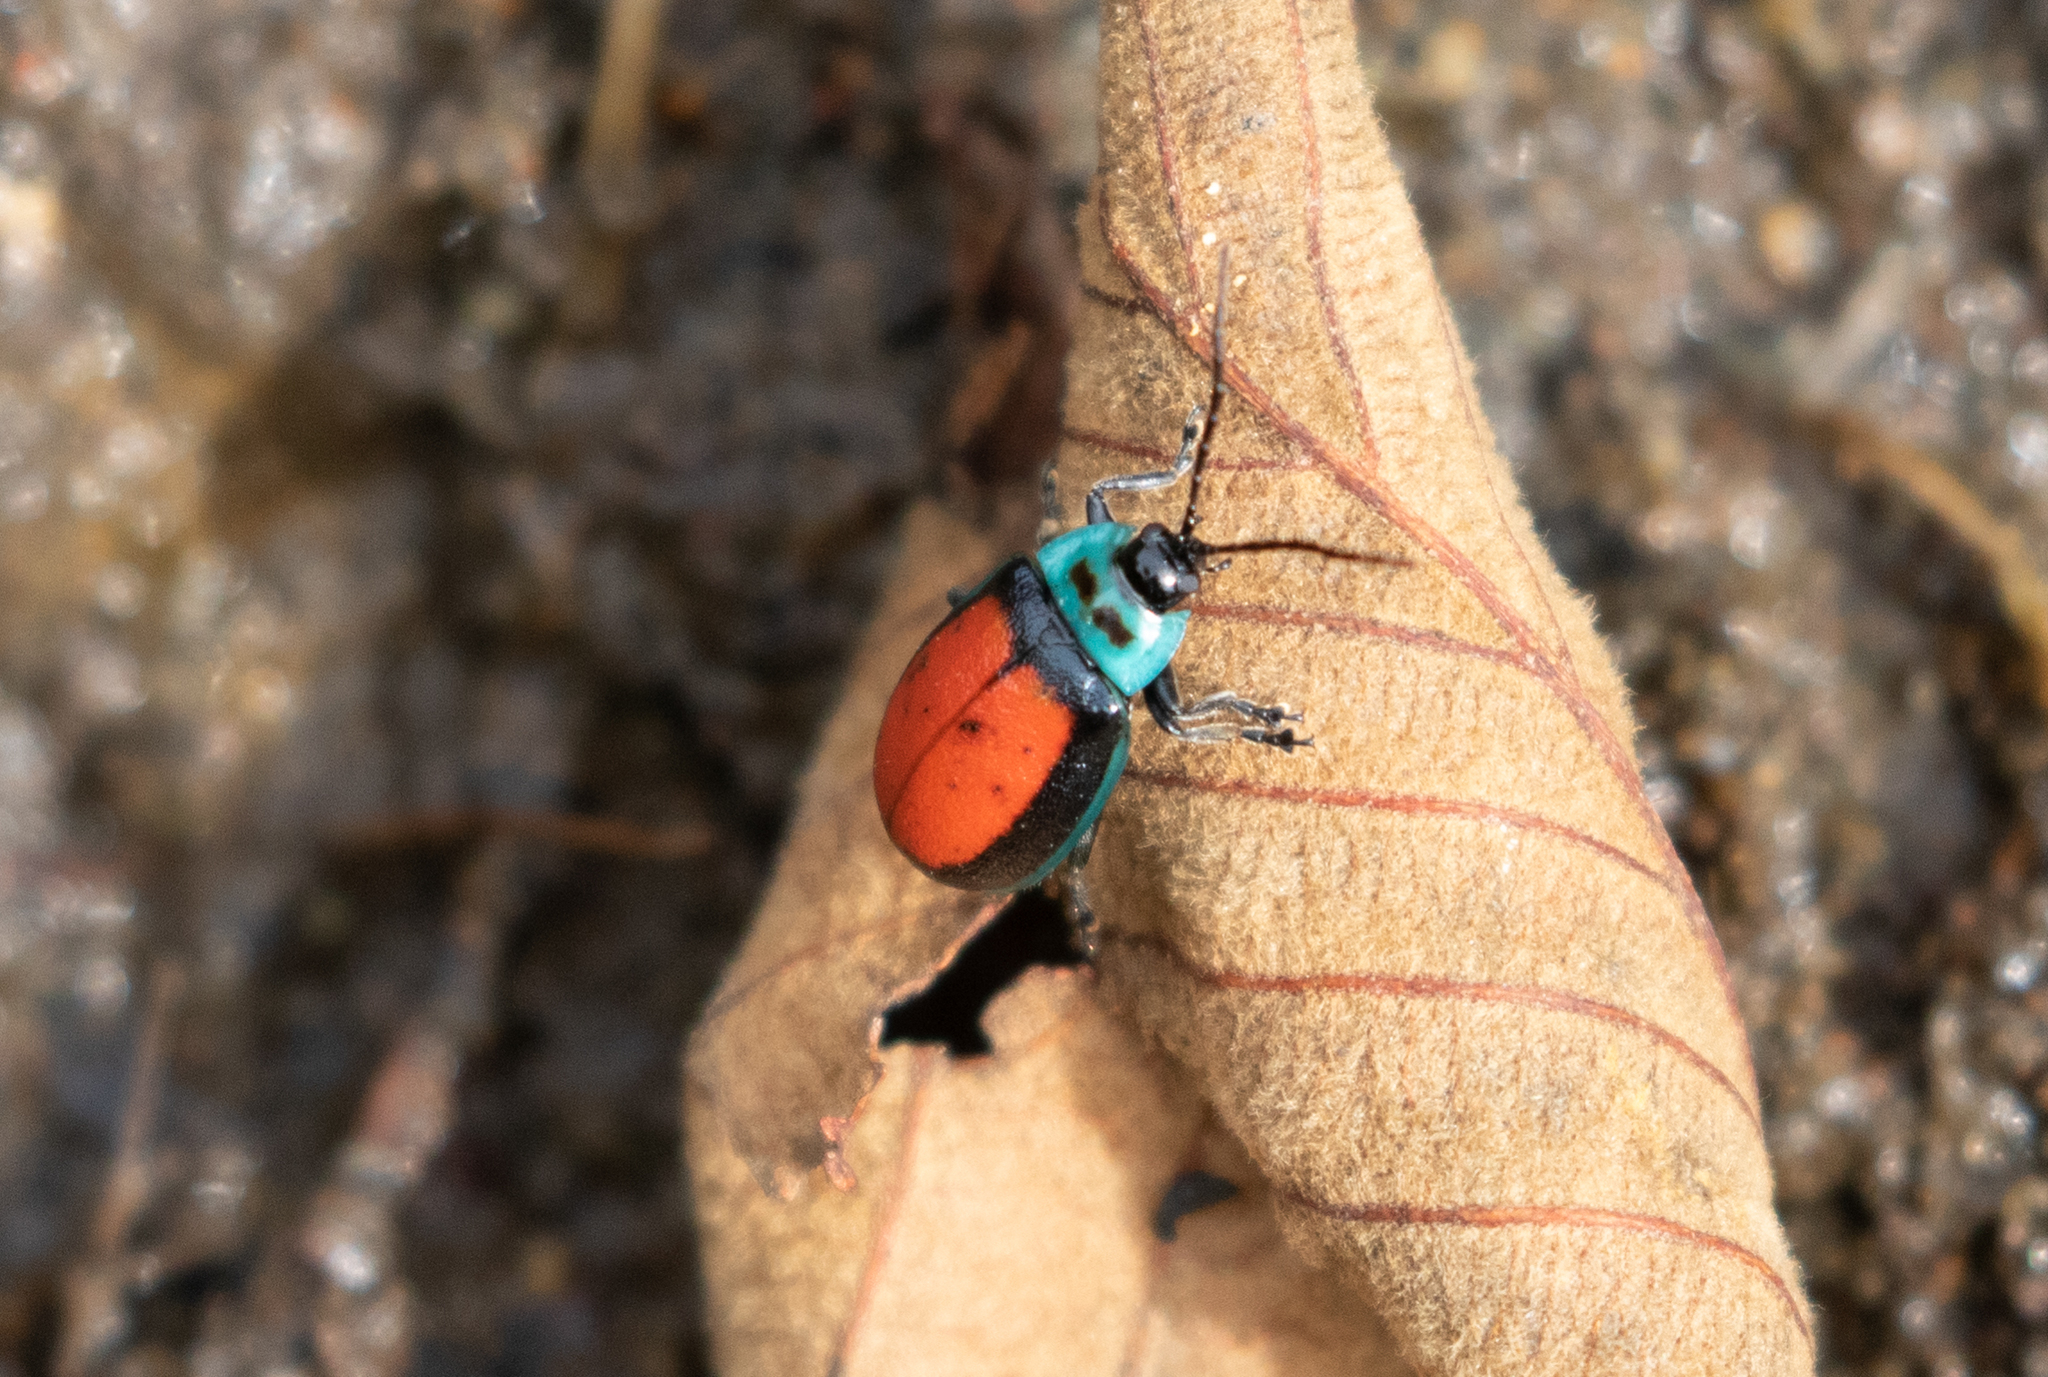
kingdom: Animalia
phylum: Arthropoda
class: Insecta
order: Coleoptera
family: Chrysomelidae
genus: Aspicela
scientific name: Aspicela
